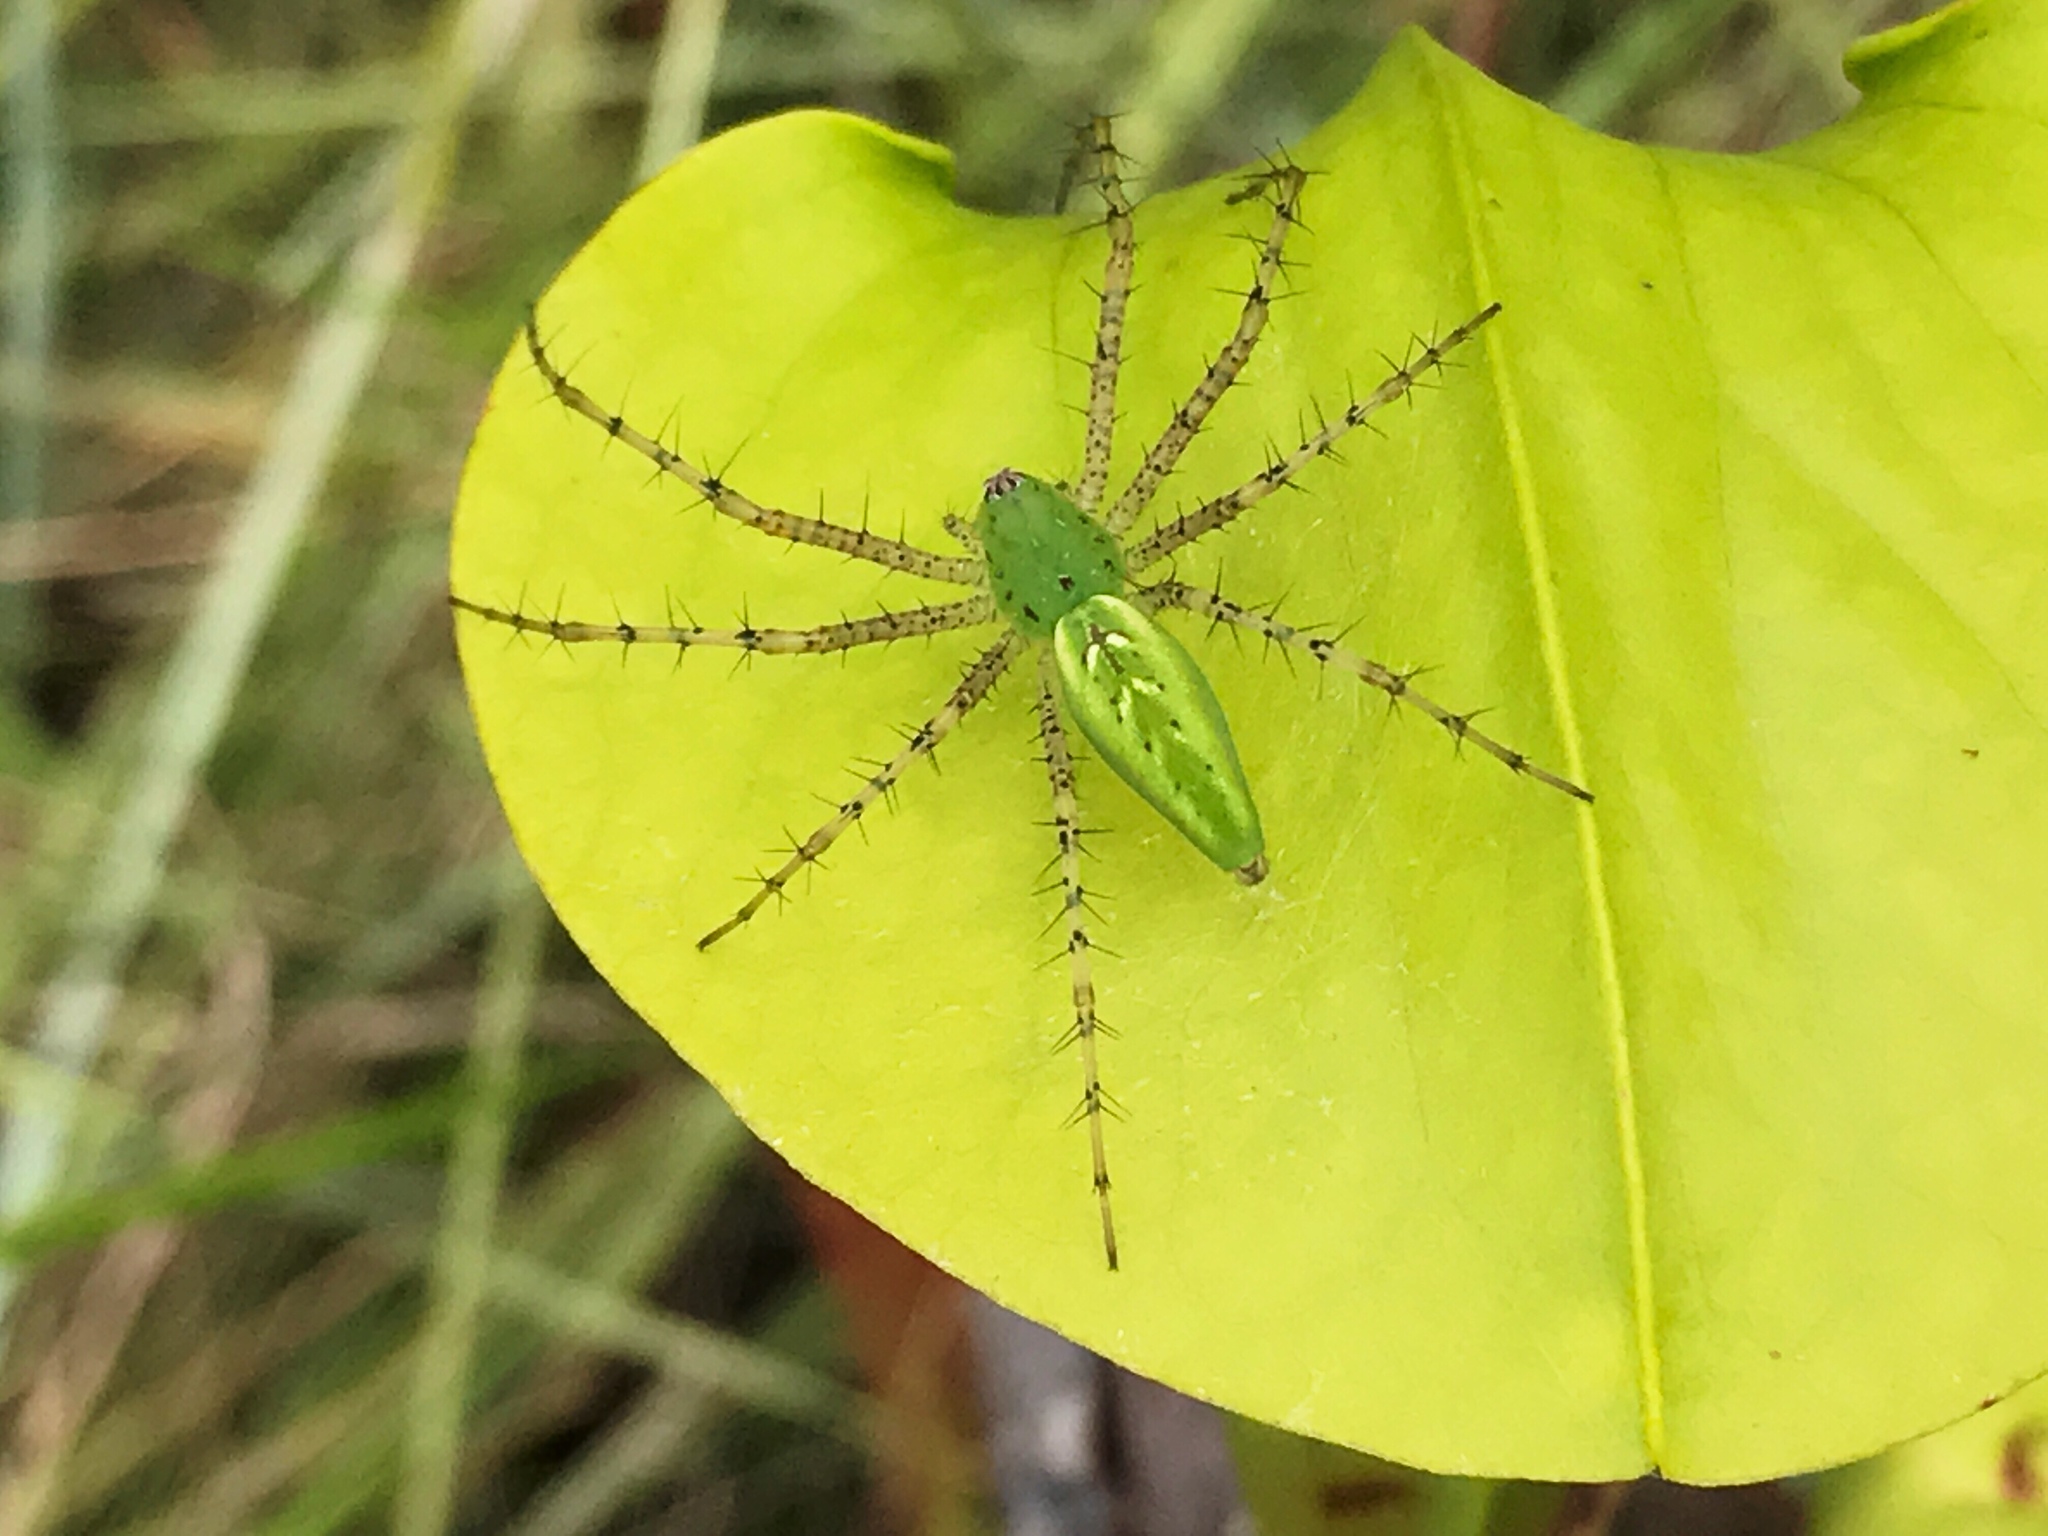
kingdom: Animalia
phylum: Arthropoda
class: Arachnida
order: Araneae
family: Oxyopidae
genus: Peucetia
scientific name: Peucetia viridans
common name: Lynx spiders
